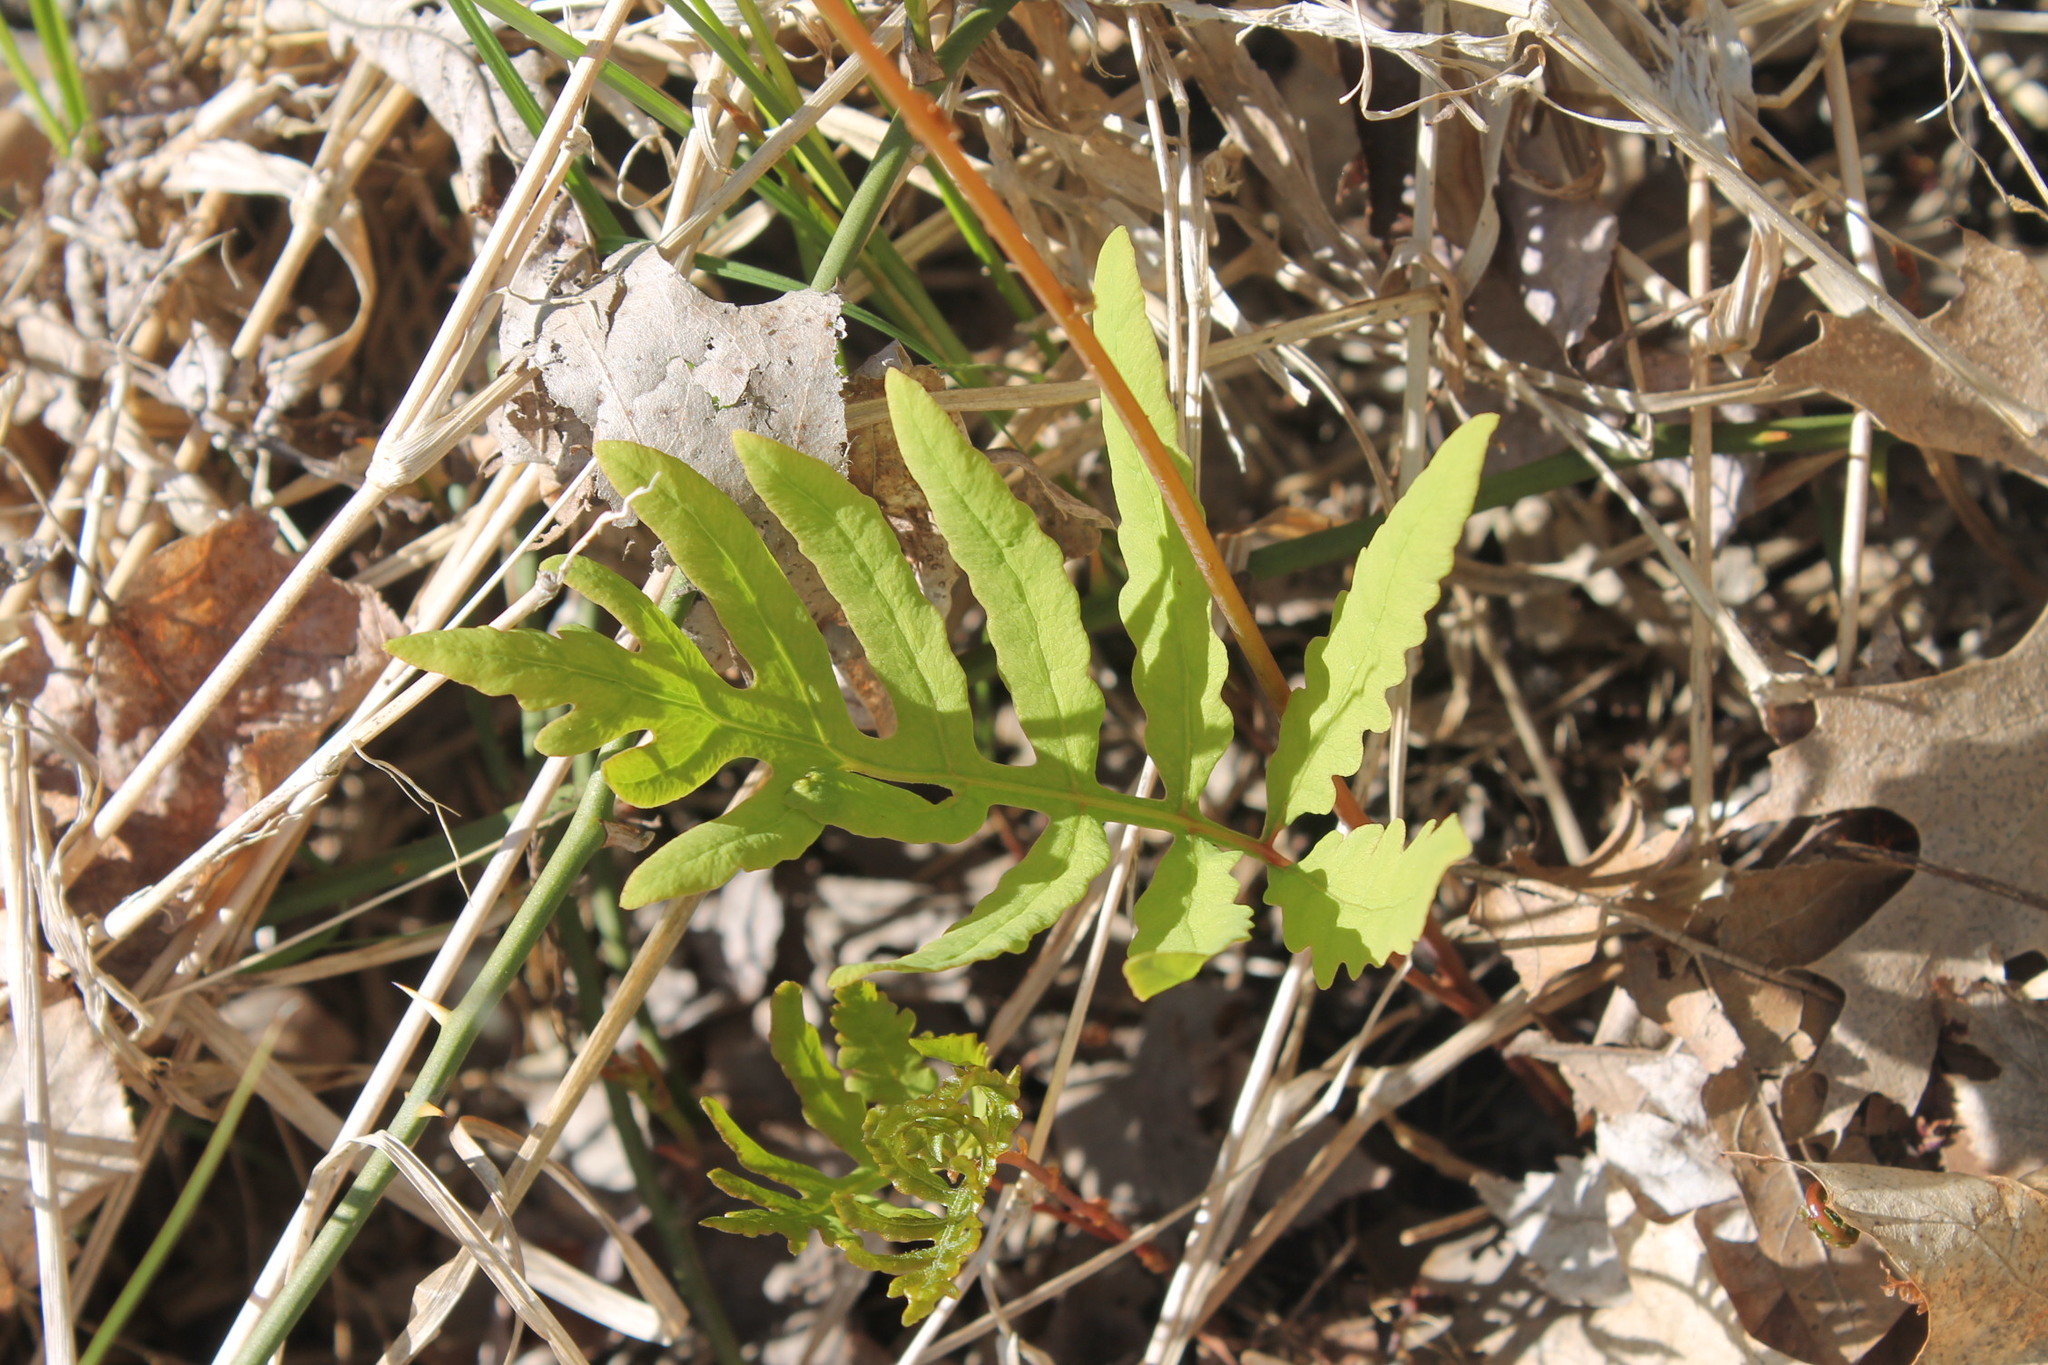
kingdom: Plantae
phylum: Tracheophyta
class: Polypodiopsida
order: Polypodiales
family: Onocleaceae
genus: Onoclea
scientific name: Onoclea sensibilis
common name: Sensitive fern
